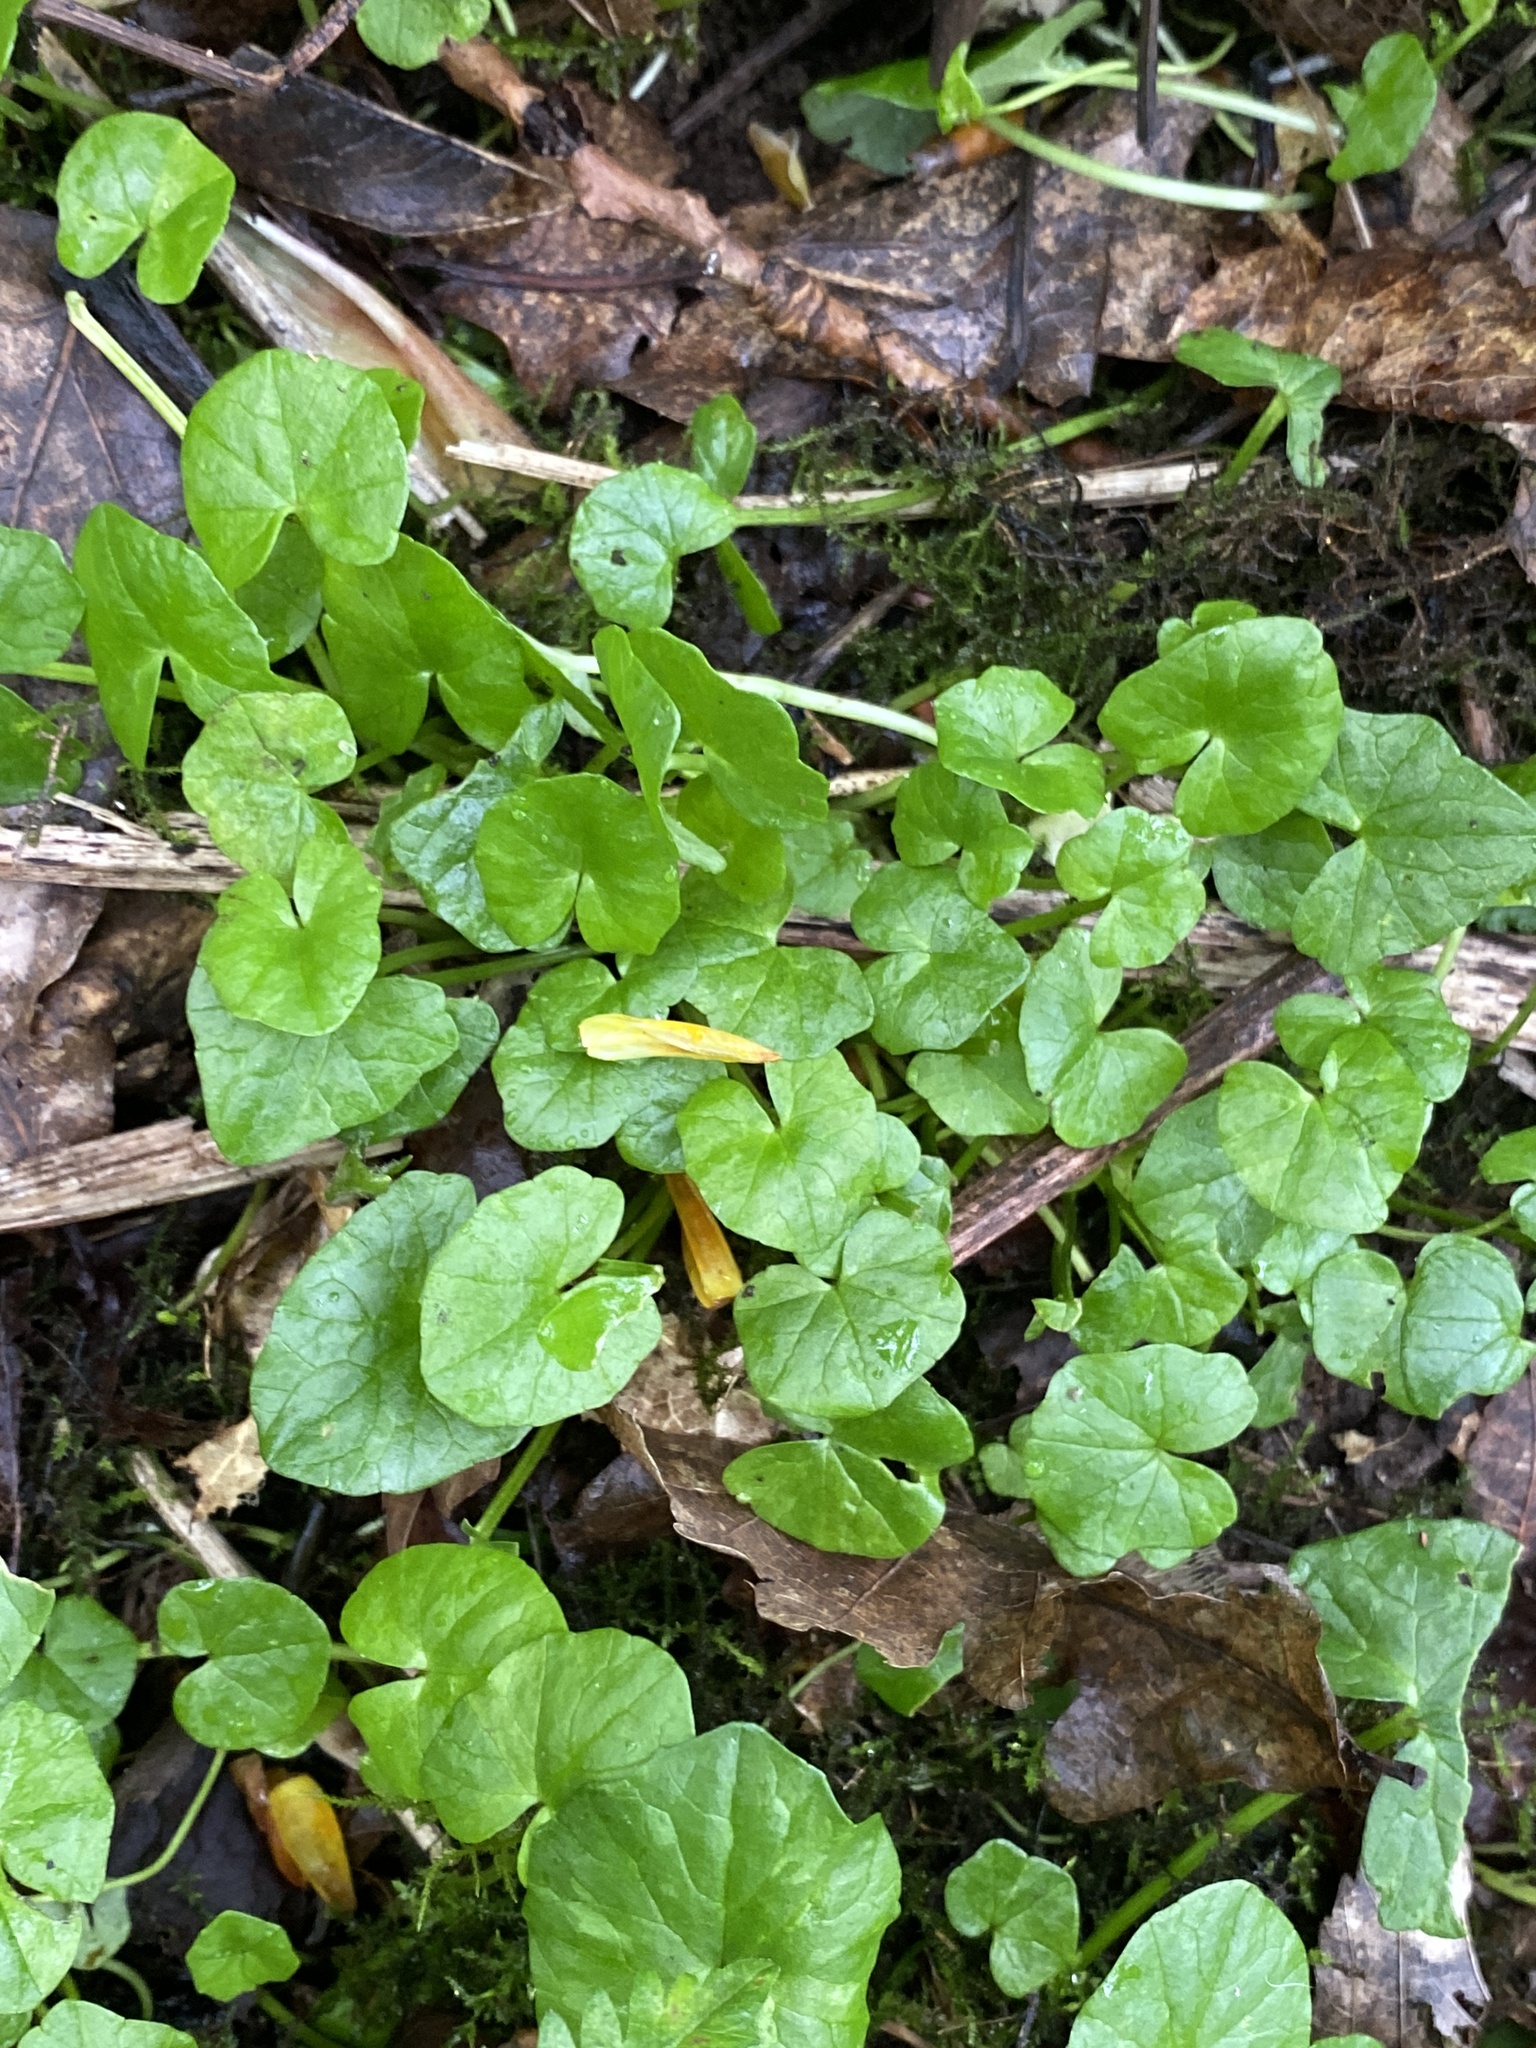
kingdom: Plantae
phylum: Tracheophyta
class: Magnoliopsida
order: Ranunculales
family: Ranunculaceae
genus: Ficaria
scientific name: Ficaria verna
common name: Lesser celandine
